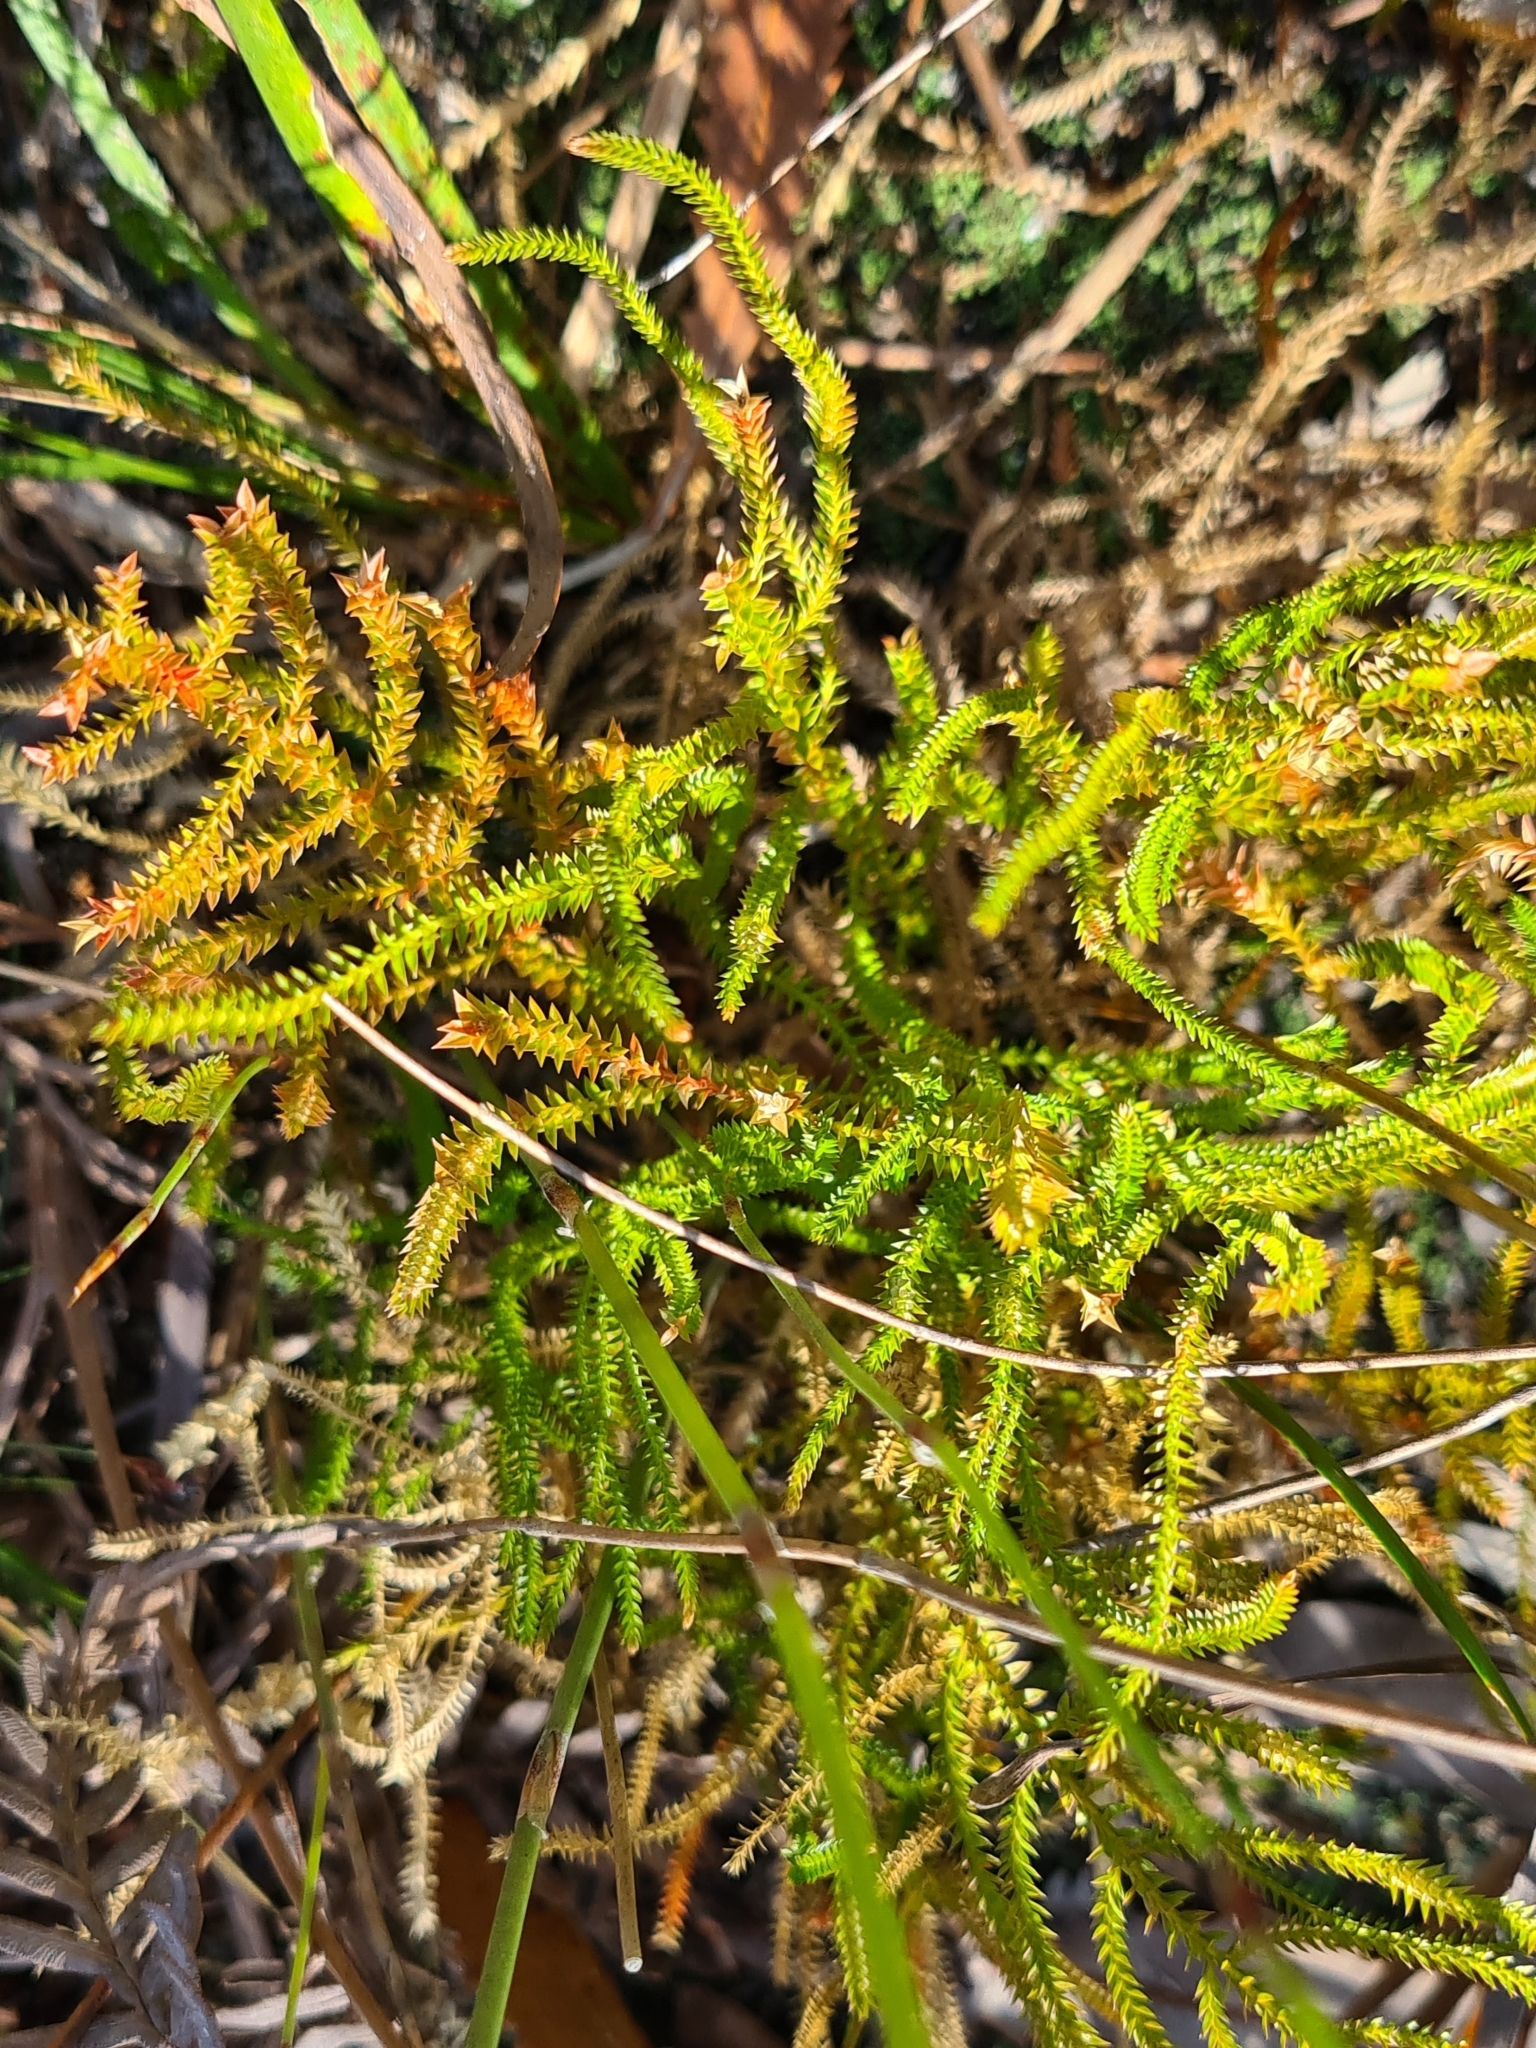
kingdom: Plantae
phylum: Tracheophyta
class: Lycopodiopsida
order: Selaginellales
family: Selaginellaceae
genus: Selaginella
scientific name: Selaginella uliginosa
